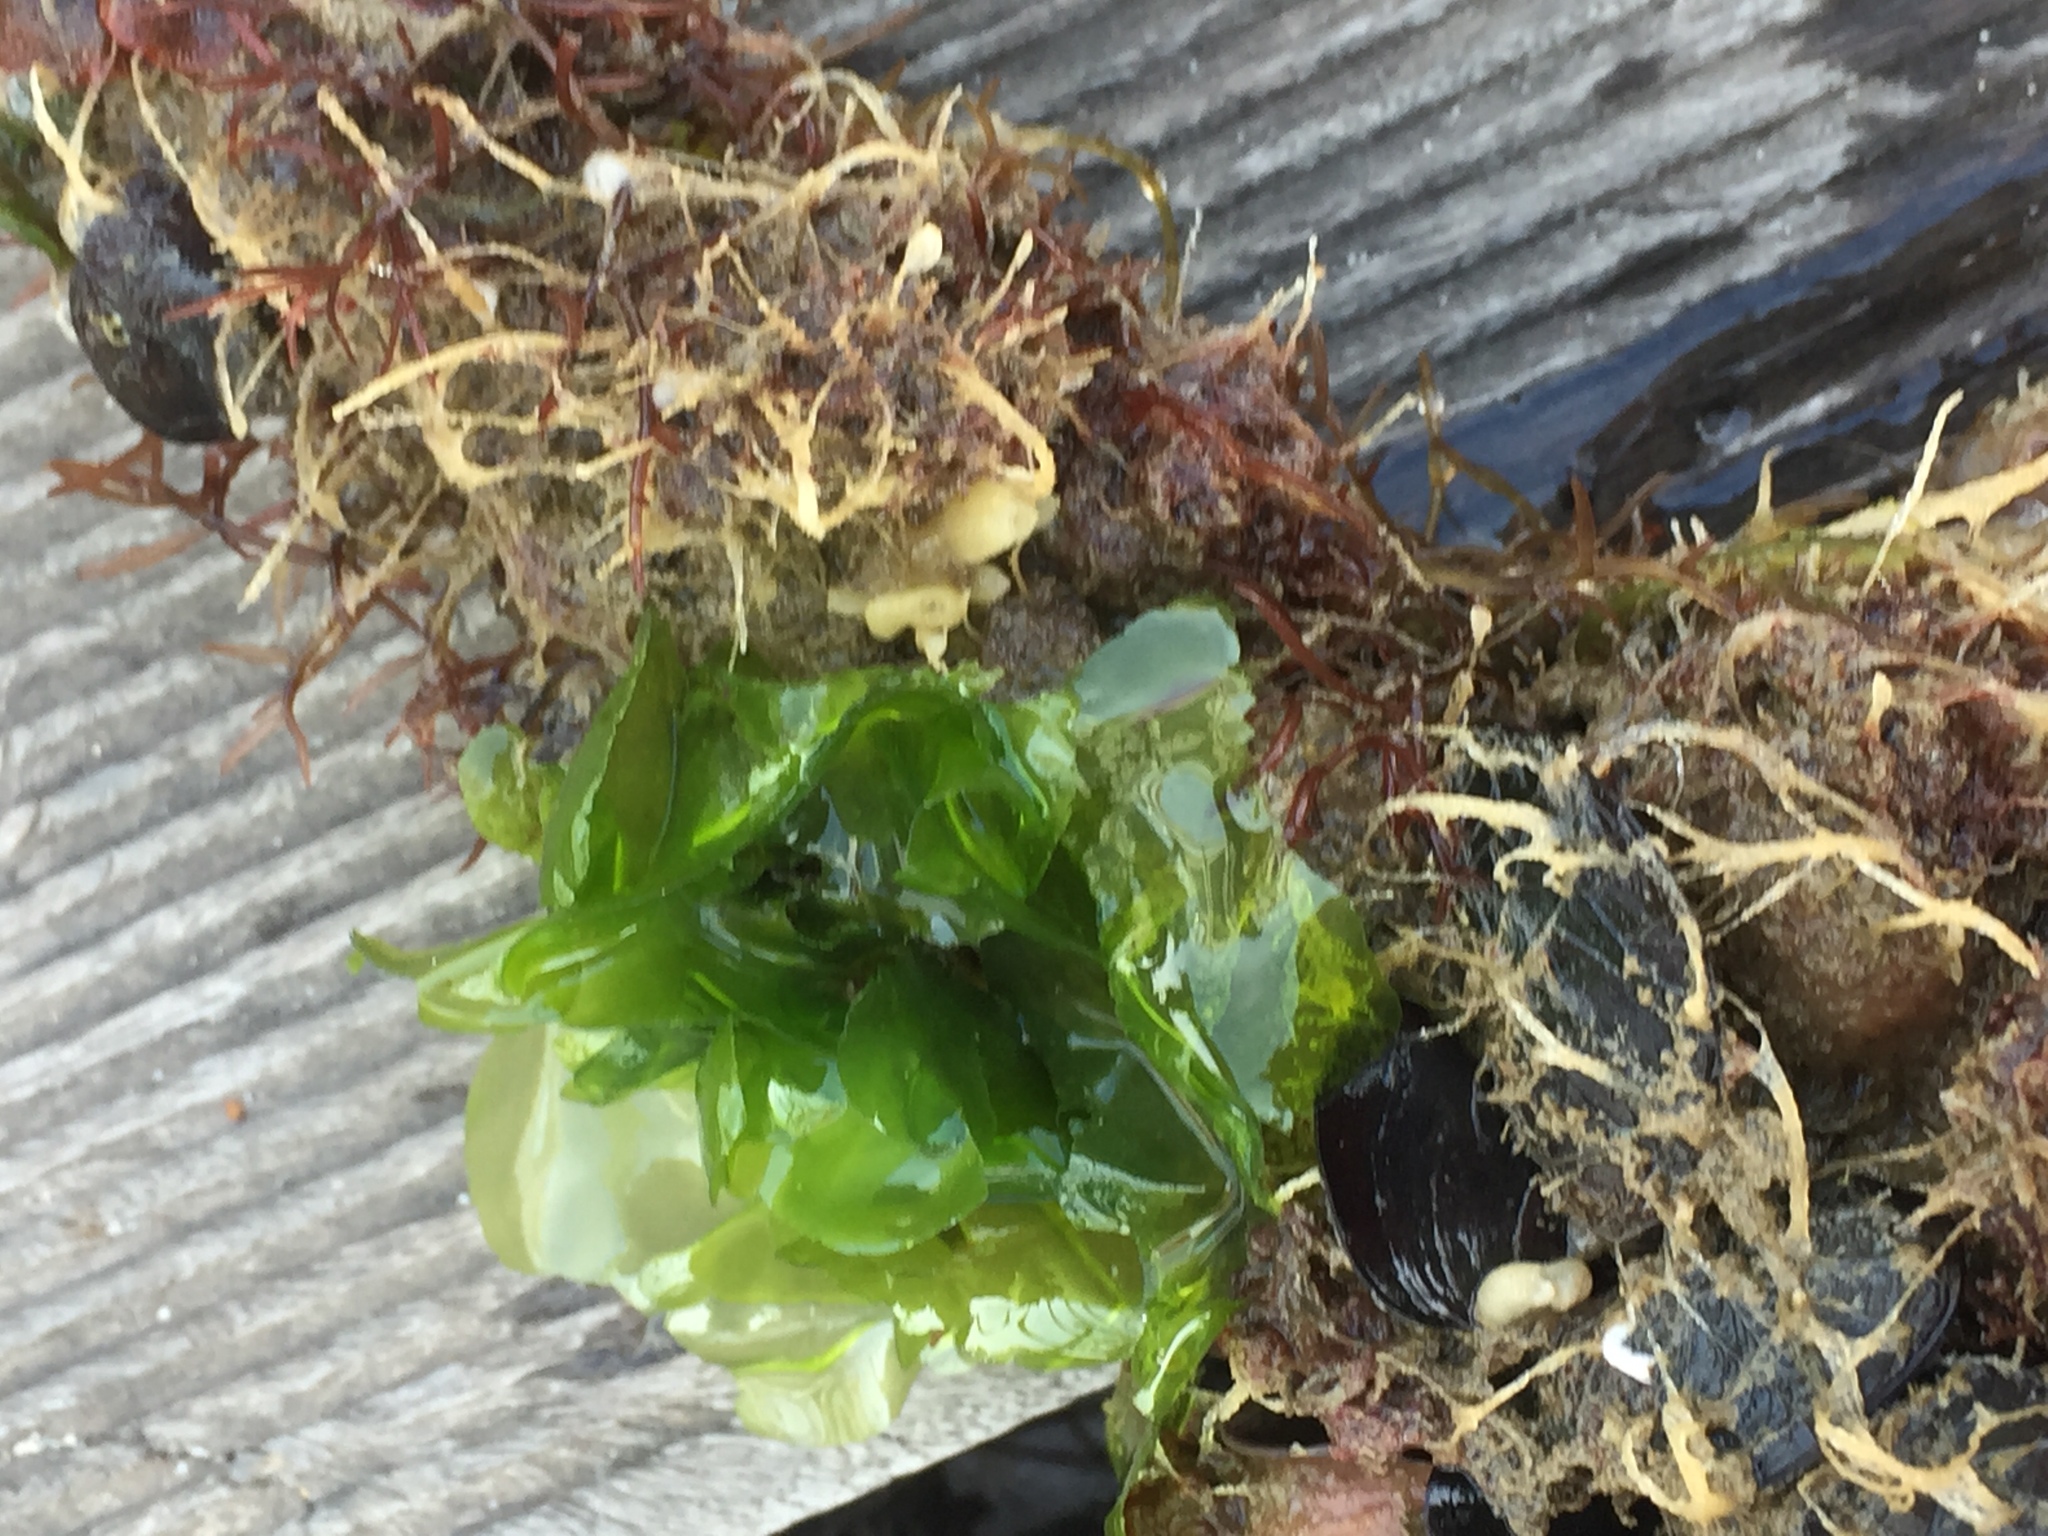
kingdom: Plantae
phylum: Chlorophyta
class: Ulvophyceae
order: Ulvales
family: Ulvaceae
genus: Ulva
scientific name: Ulva lactuca
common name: Sea lettuce
